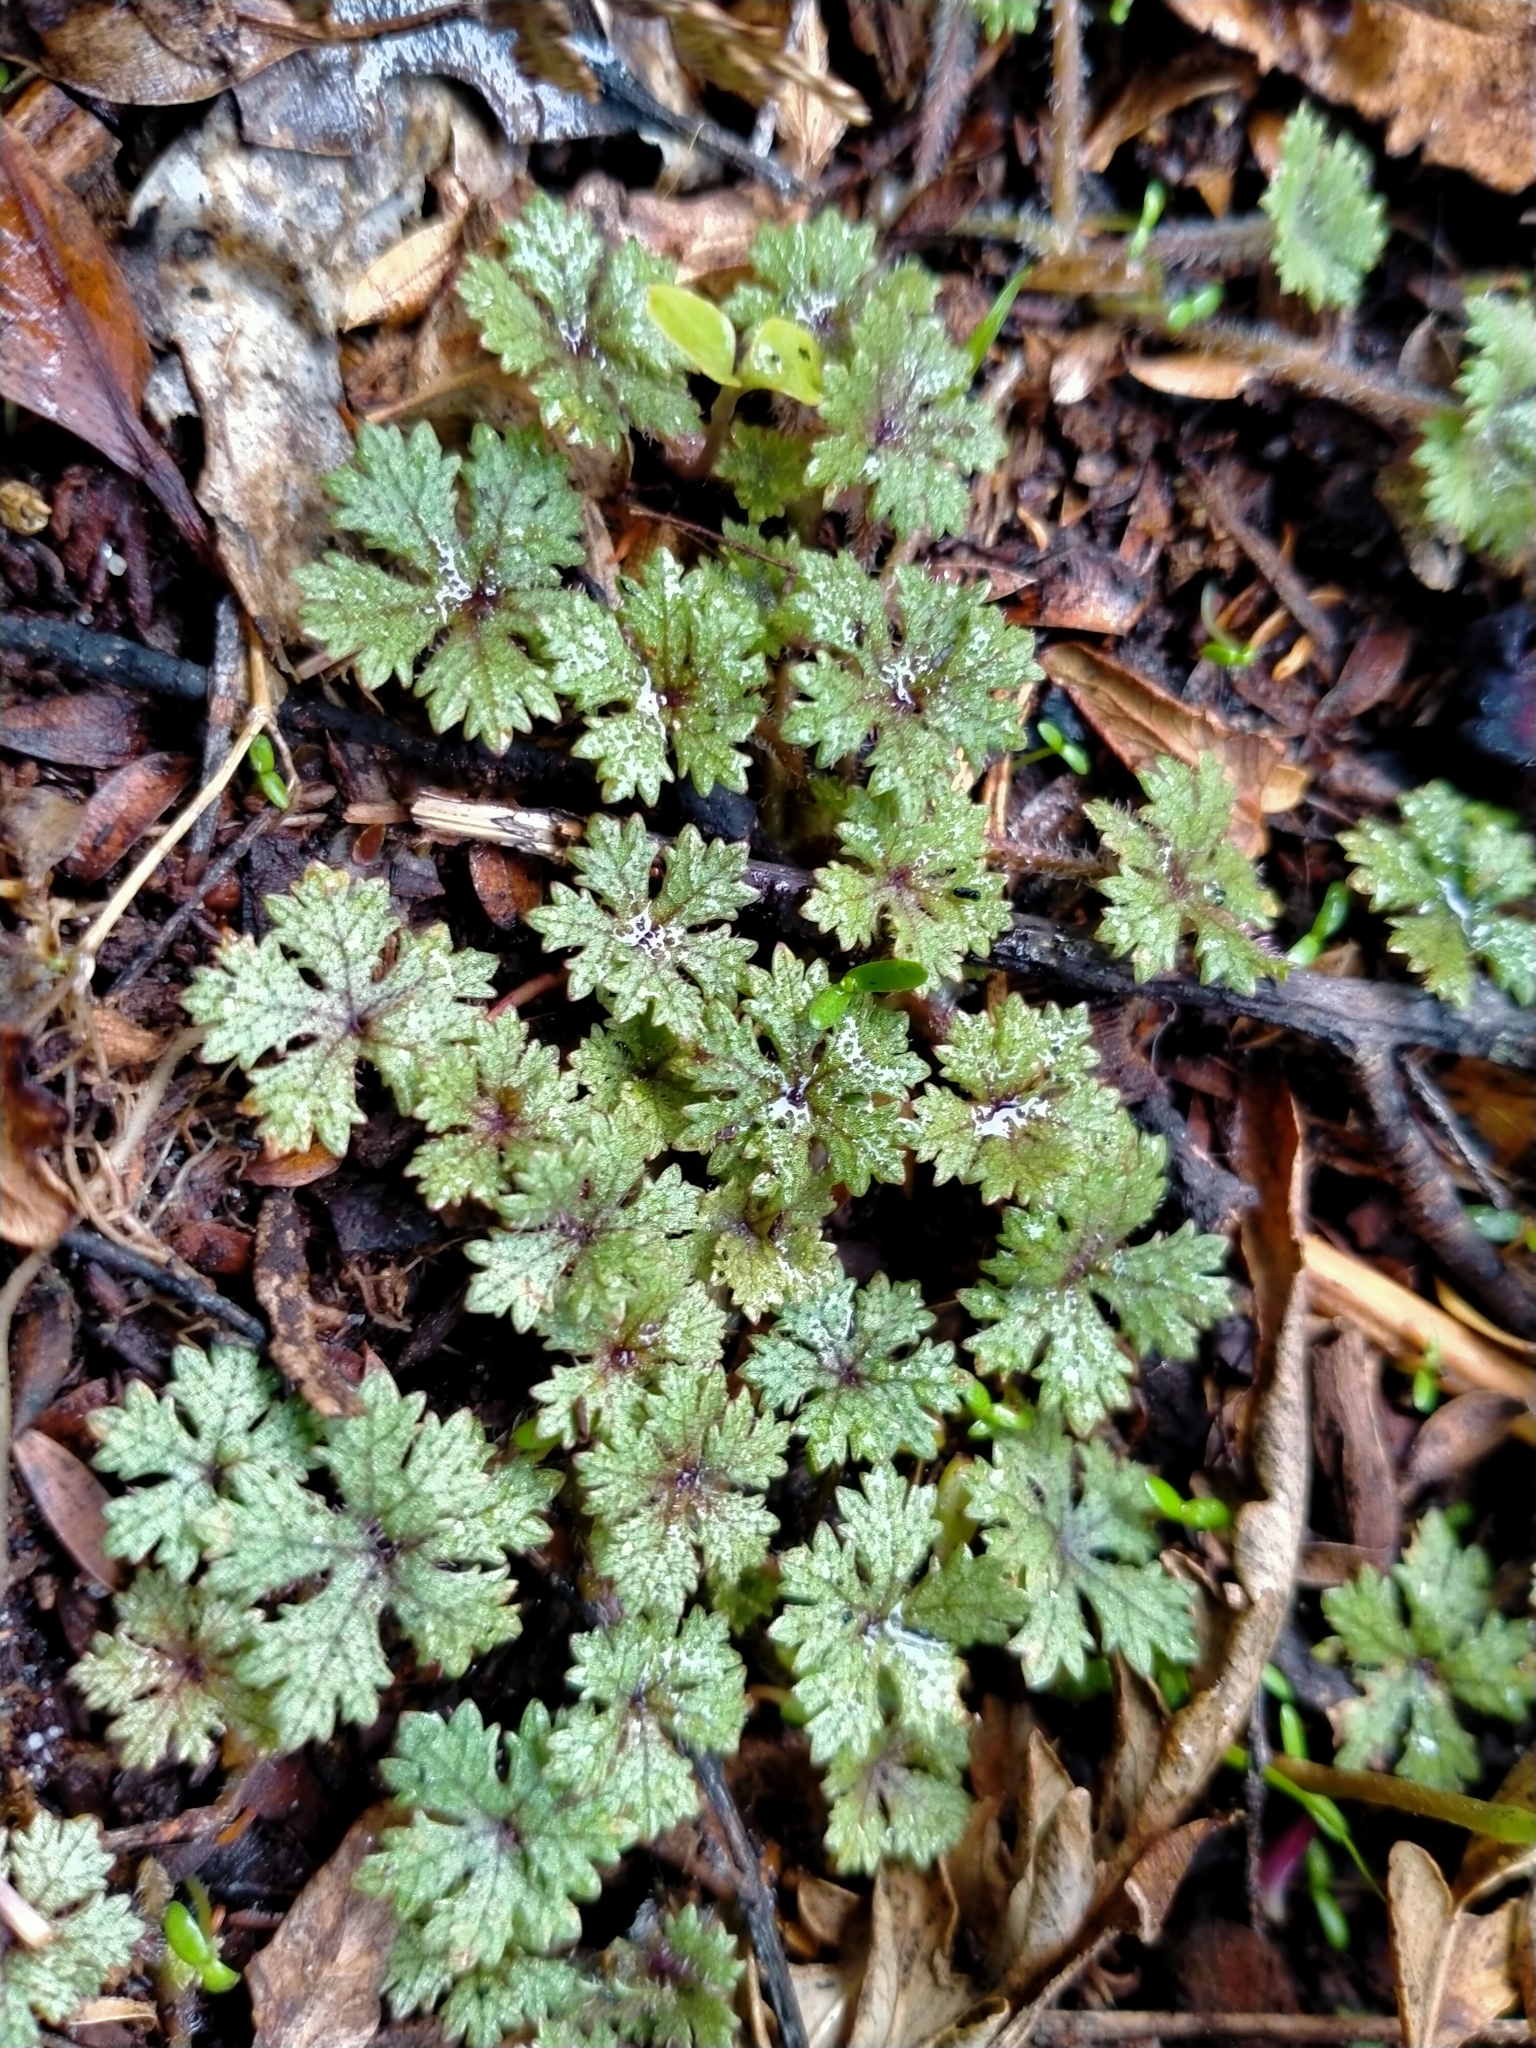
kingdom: Plantae
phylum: Tracheophyta
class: Magnoliopsida
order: Apiales
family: Araliaceae
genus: Hydrocotyle
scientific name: Hydrocotyle dissecta
